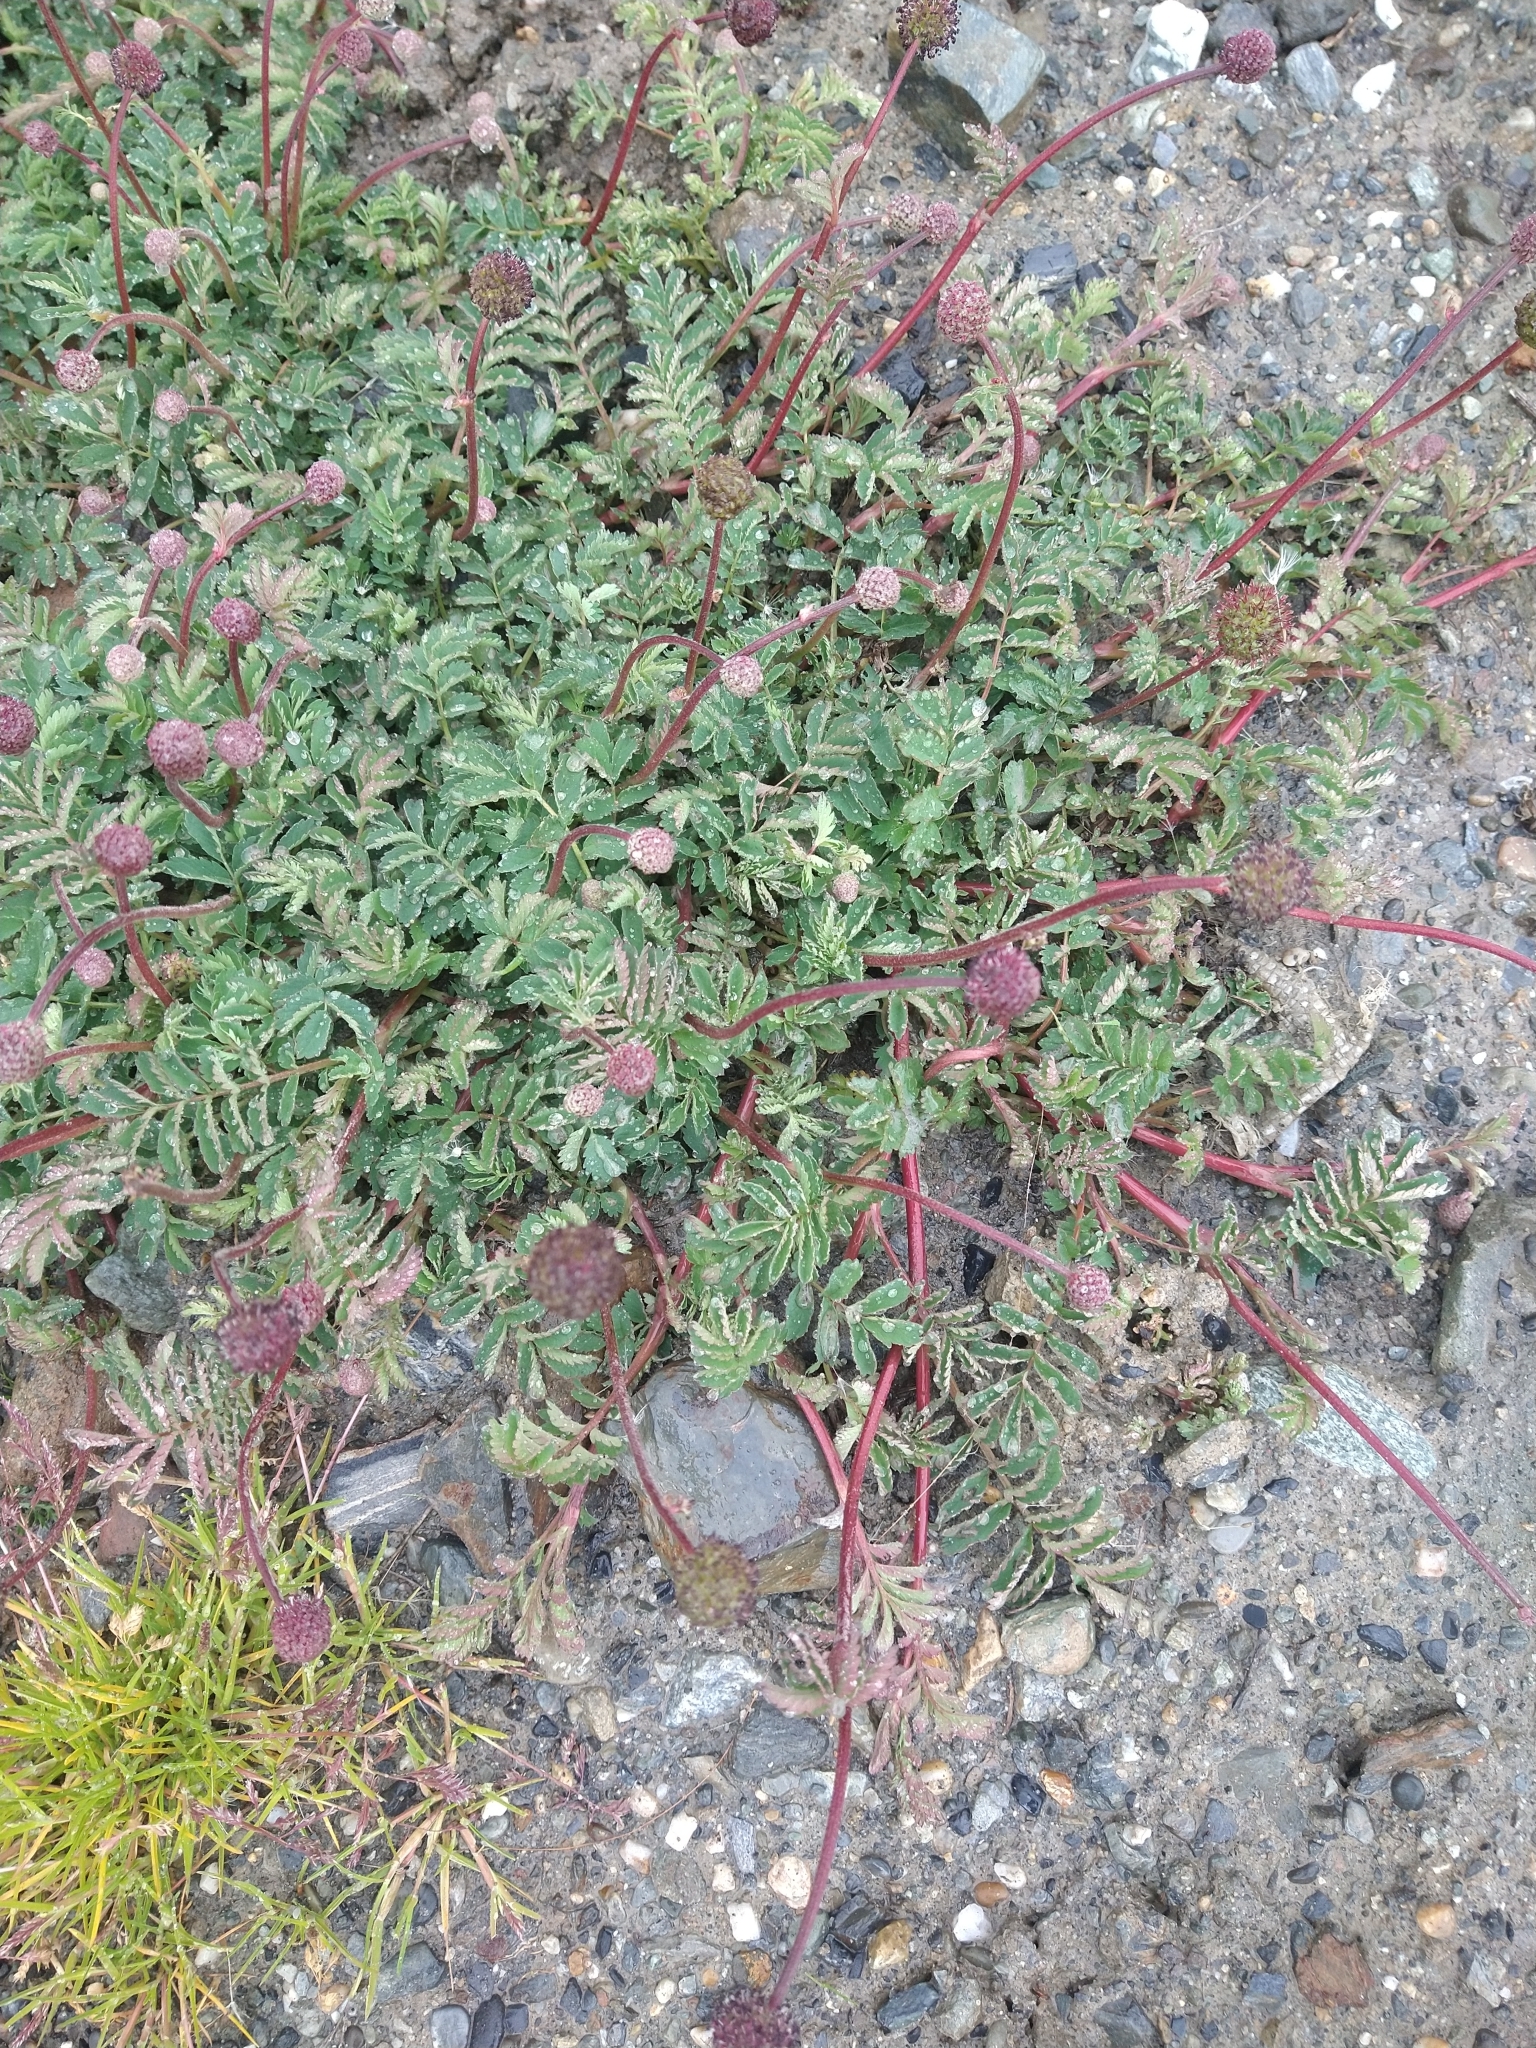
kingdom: Plantae
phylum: Tracheophyta
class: Magnoliopsida
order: Rosales
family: Rosaceae
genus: Acaena
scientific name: Acaena magellanica
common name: New zealand burr
